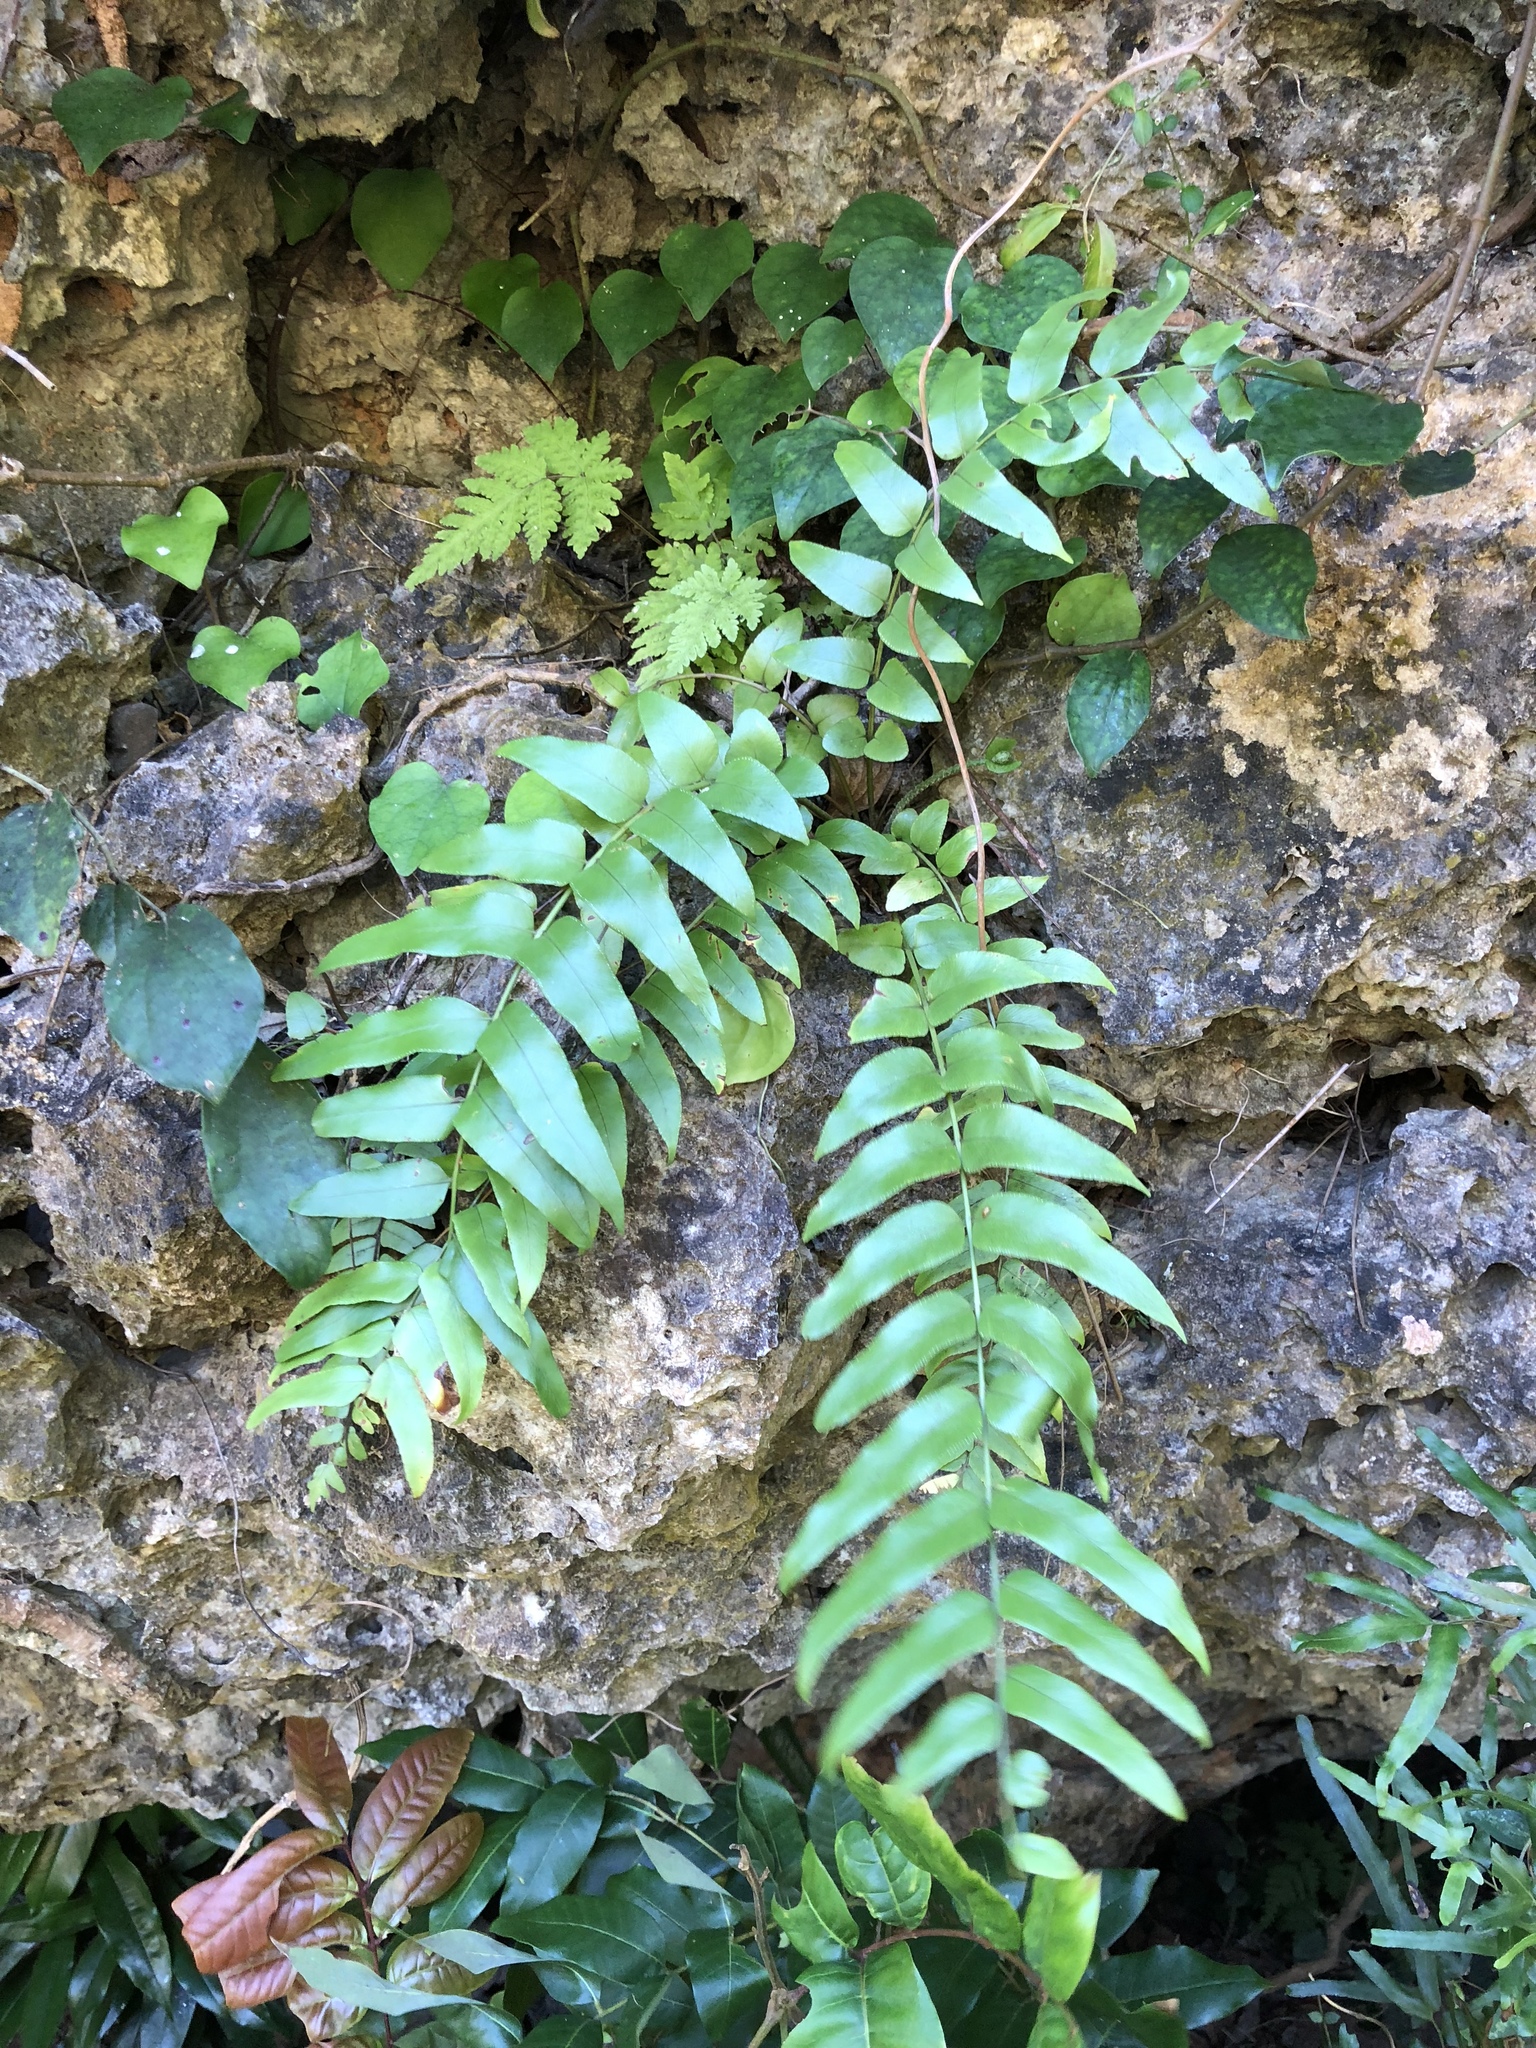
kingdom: Plantae
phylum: Tracheophyta
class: Polypodiopsida
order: Polypodiales
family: Nephrolepidaceae
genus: Nephrolepis
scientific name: Nephrolepis biserrata
